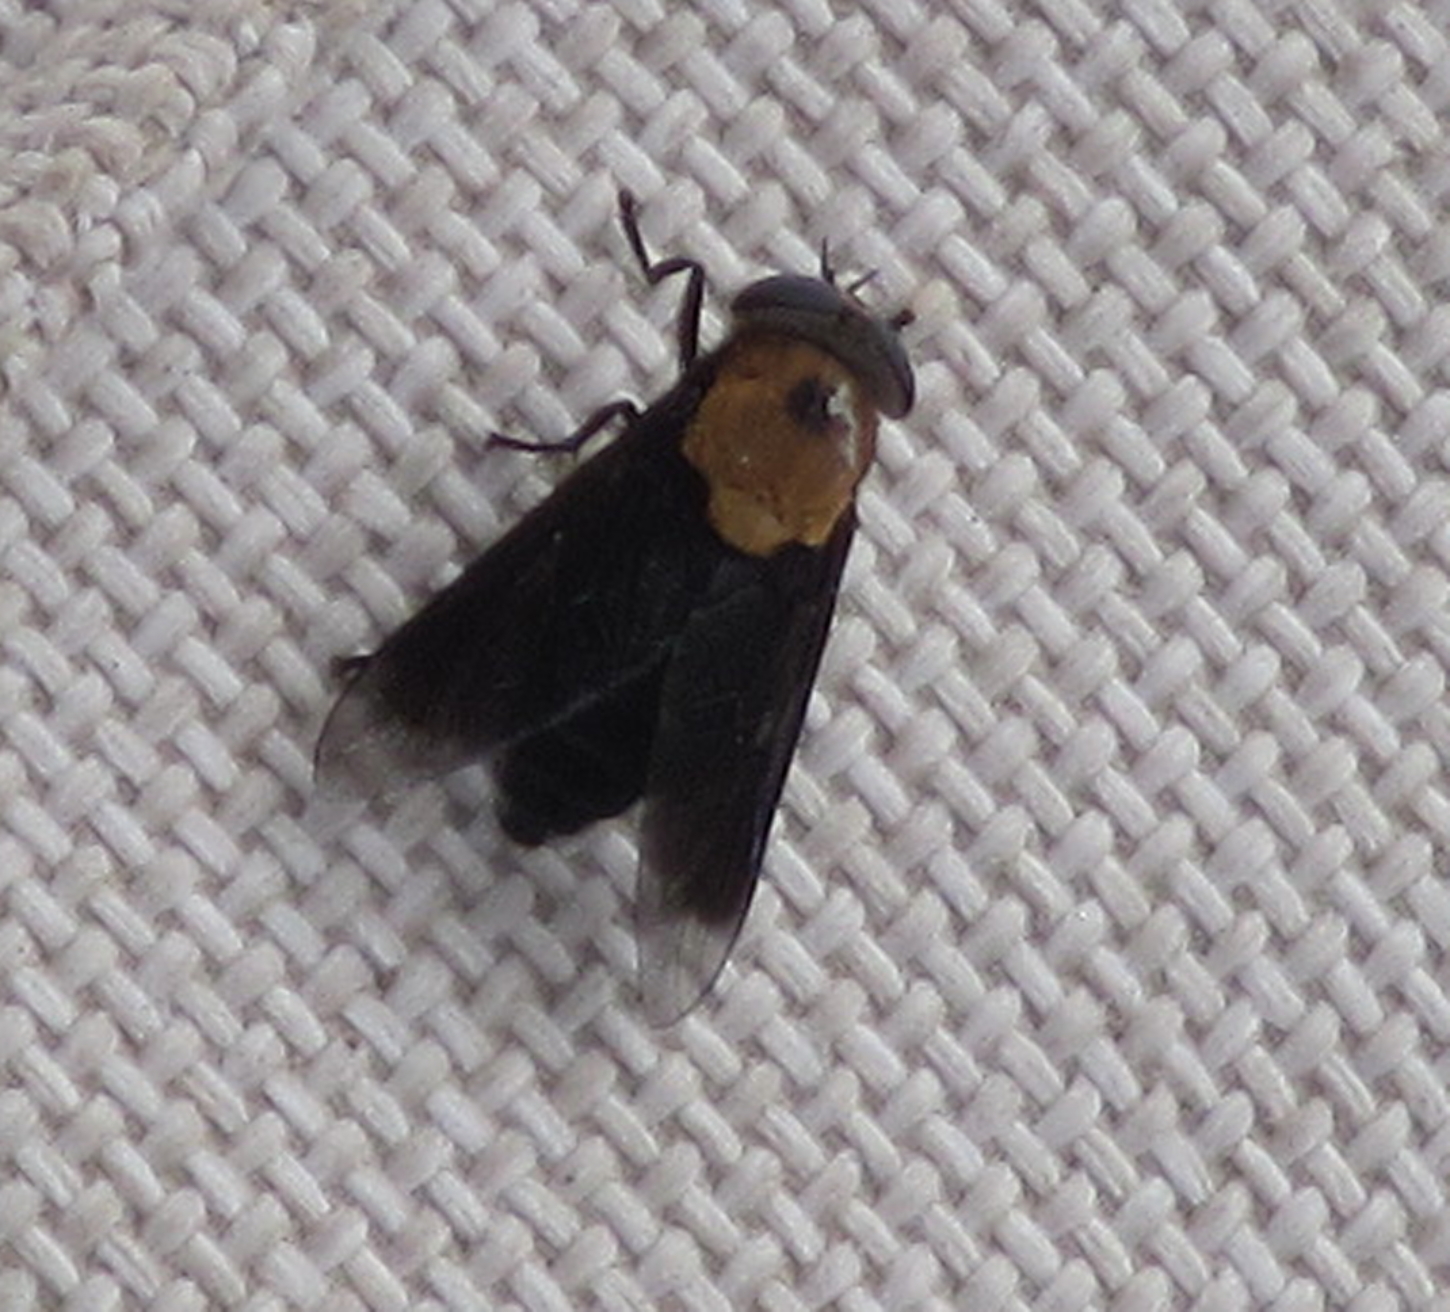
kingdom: Animalia
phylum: Arthropoda
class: Insecta
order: Diptera
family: Tabanidae
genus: Tabanus
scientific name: Tabanus biguttatus
